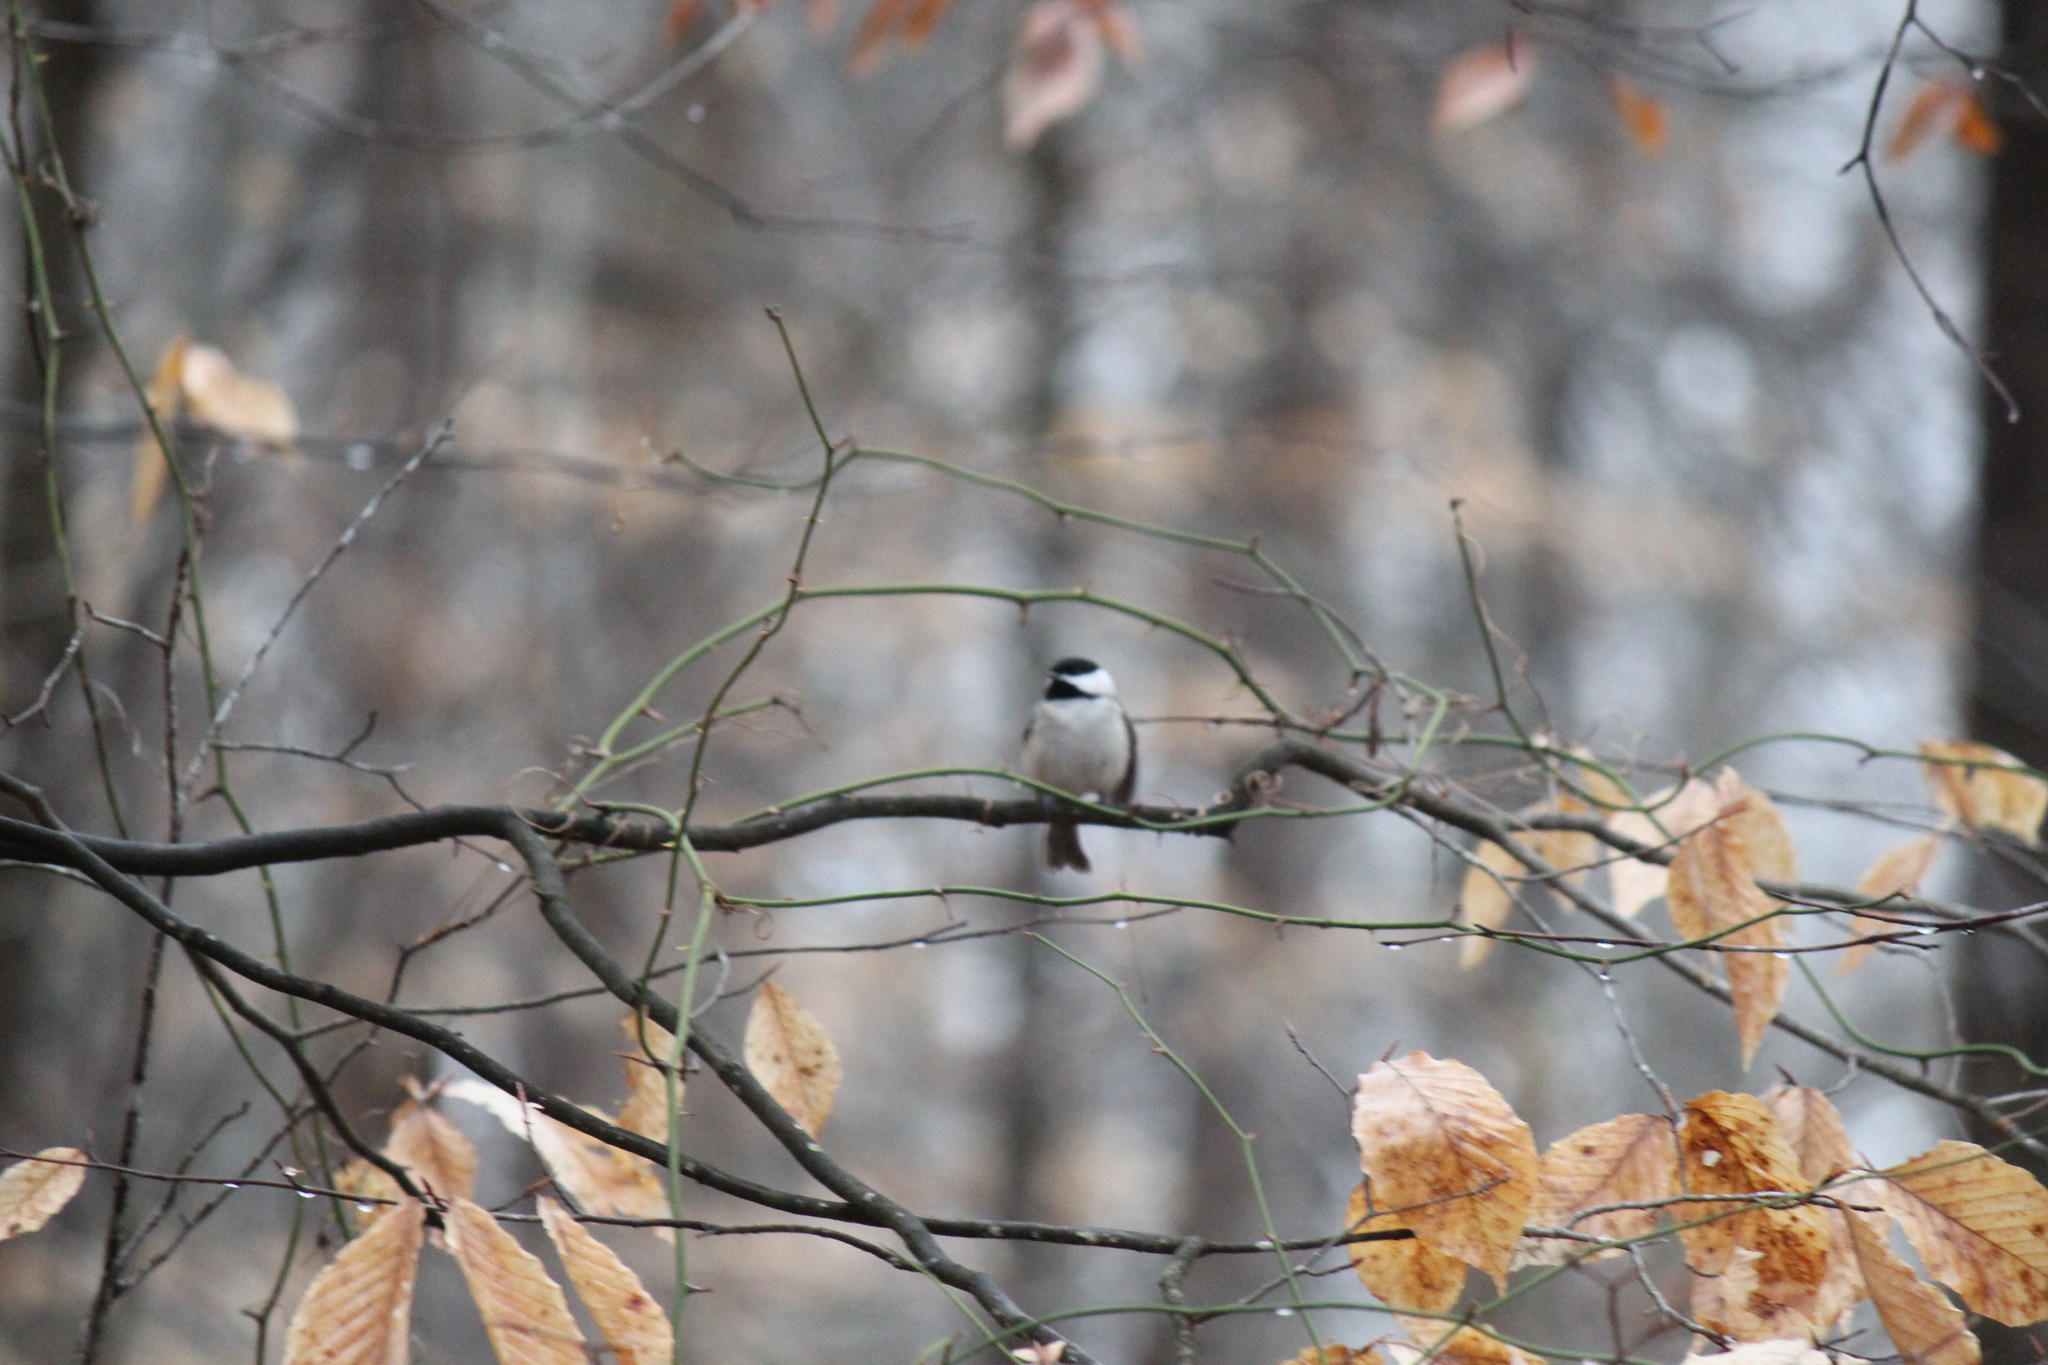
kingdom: Animalia
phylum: Chordata
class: Aves
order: Passeriformes
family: Paridae
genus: Poecile
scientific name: Poecile carolinensis
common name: Carolina chickadee
